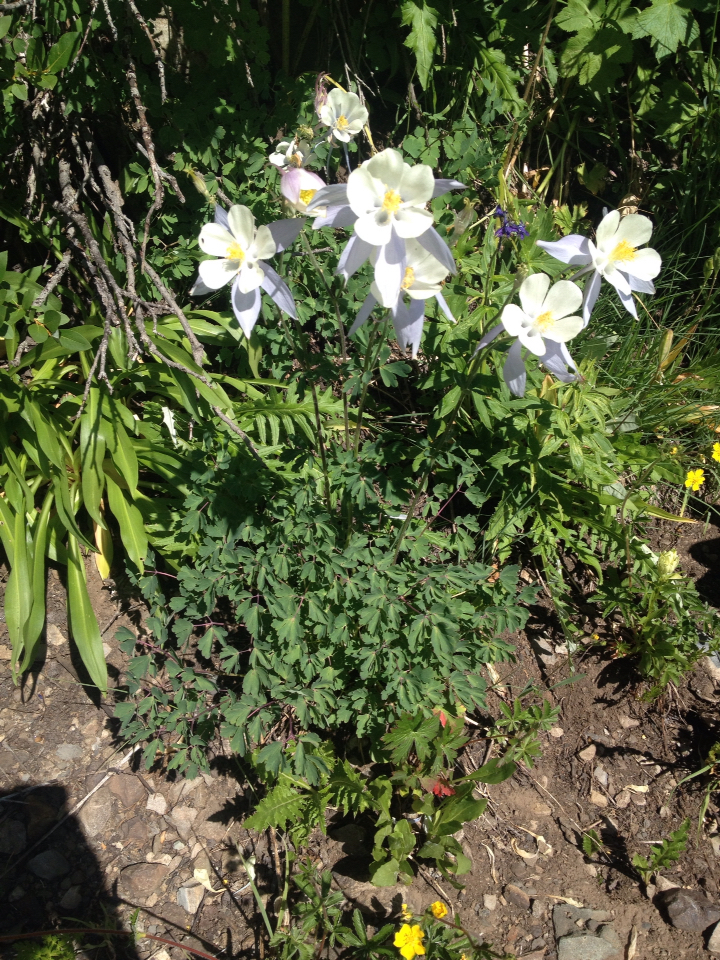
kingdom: Plantae
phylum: Tracheophyta
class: Magnoliopsida
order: Ranunculales
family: Ranunculaceae
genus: Aquilegia
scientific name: Aquilegia coerulea
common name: Rocky mountain columbine
